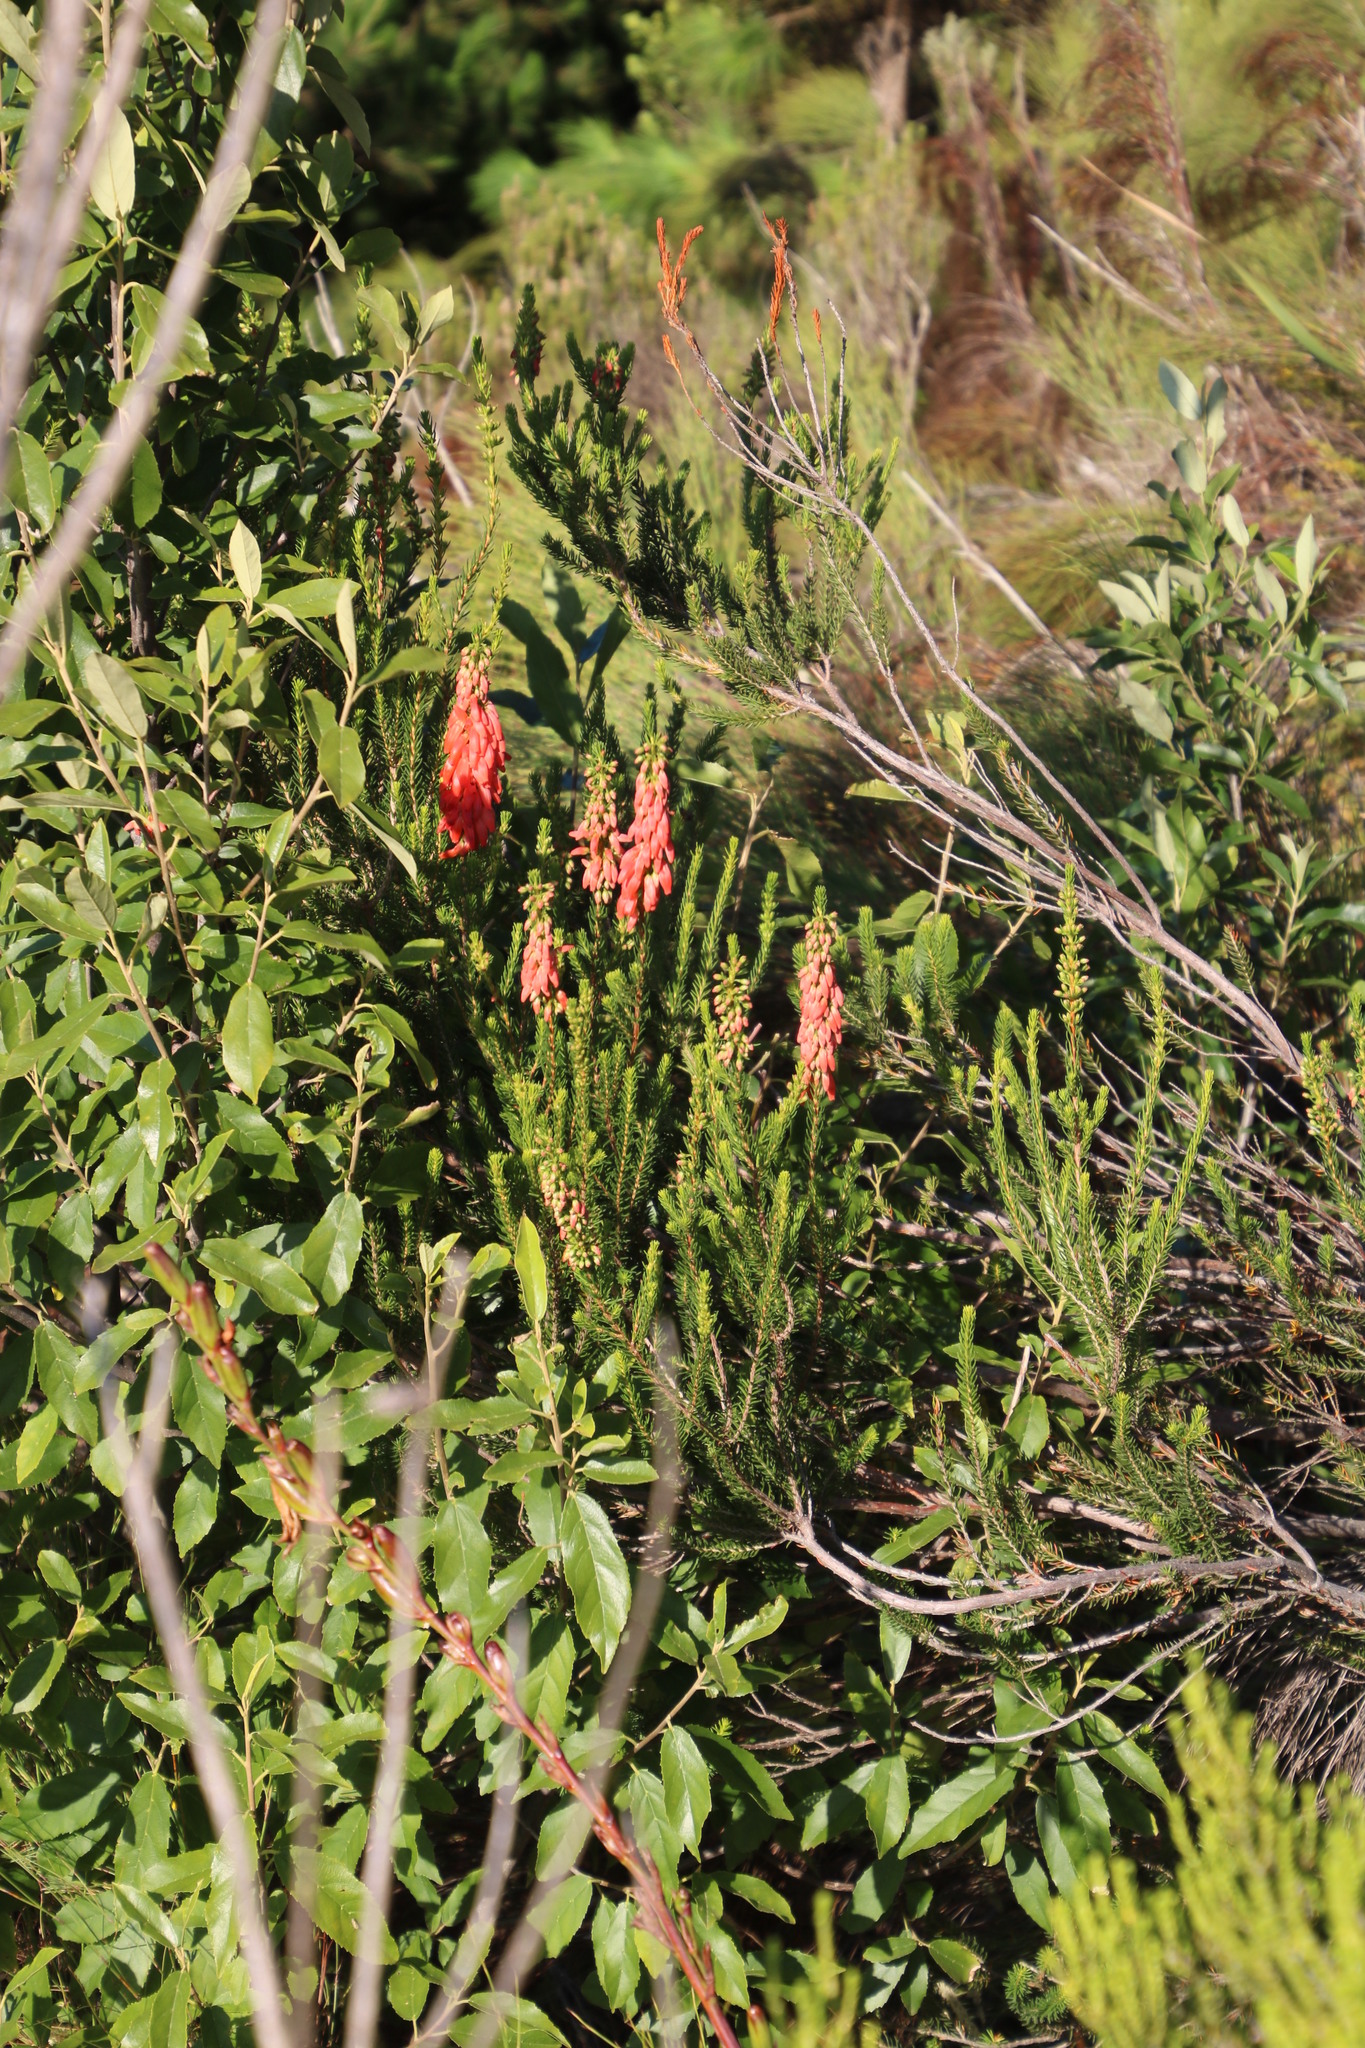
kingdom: Plantae
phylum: Tracheophyta
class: Magnoliopsida
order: Ericales
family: Ericaceae
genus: Erica
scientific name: Erica mammosa
